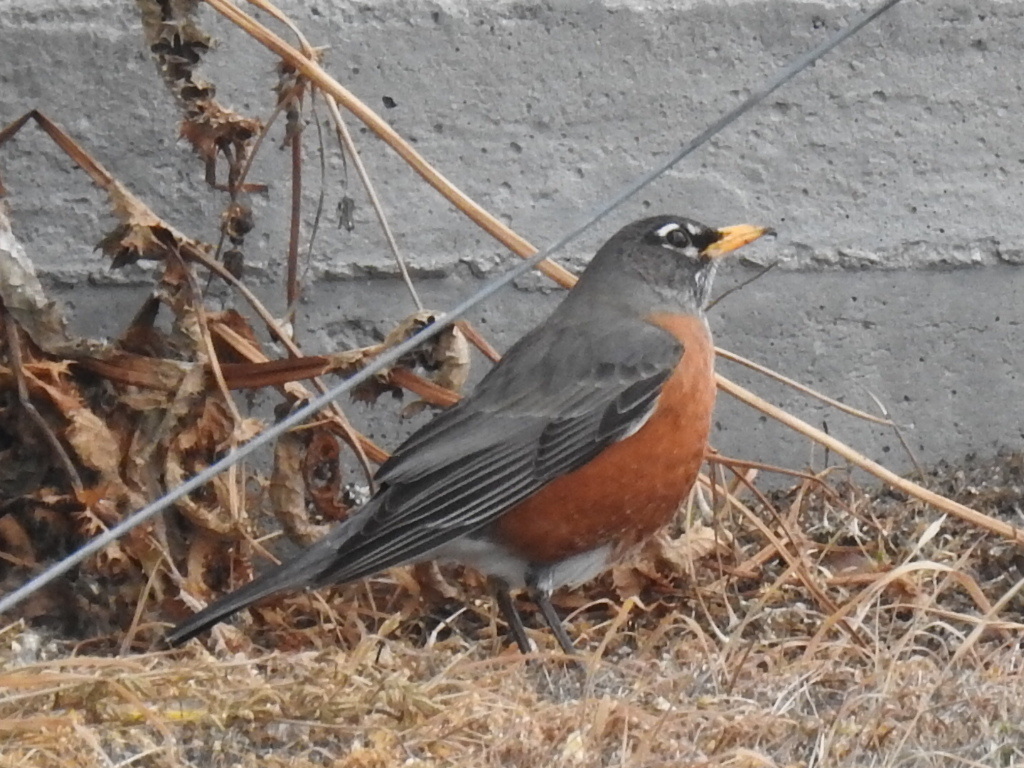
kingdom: Animalia
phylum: Chordata
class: Aves
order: Passeriformes
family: Turdidae
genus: Turdus
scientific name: Turdus migratorius
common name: American robin
